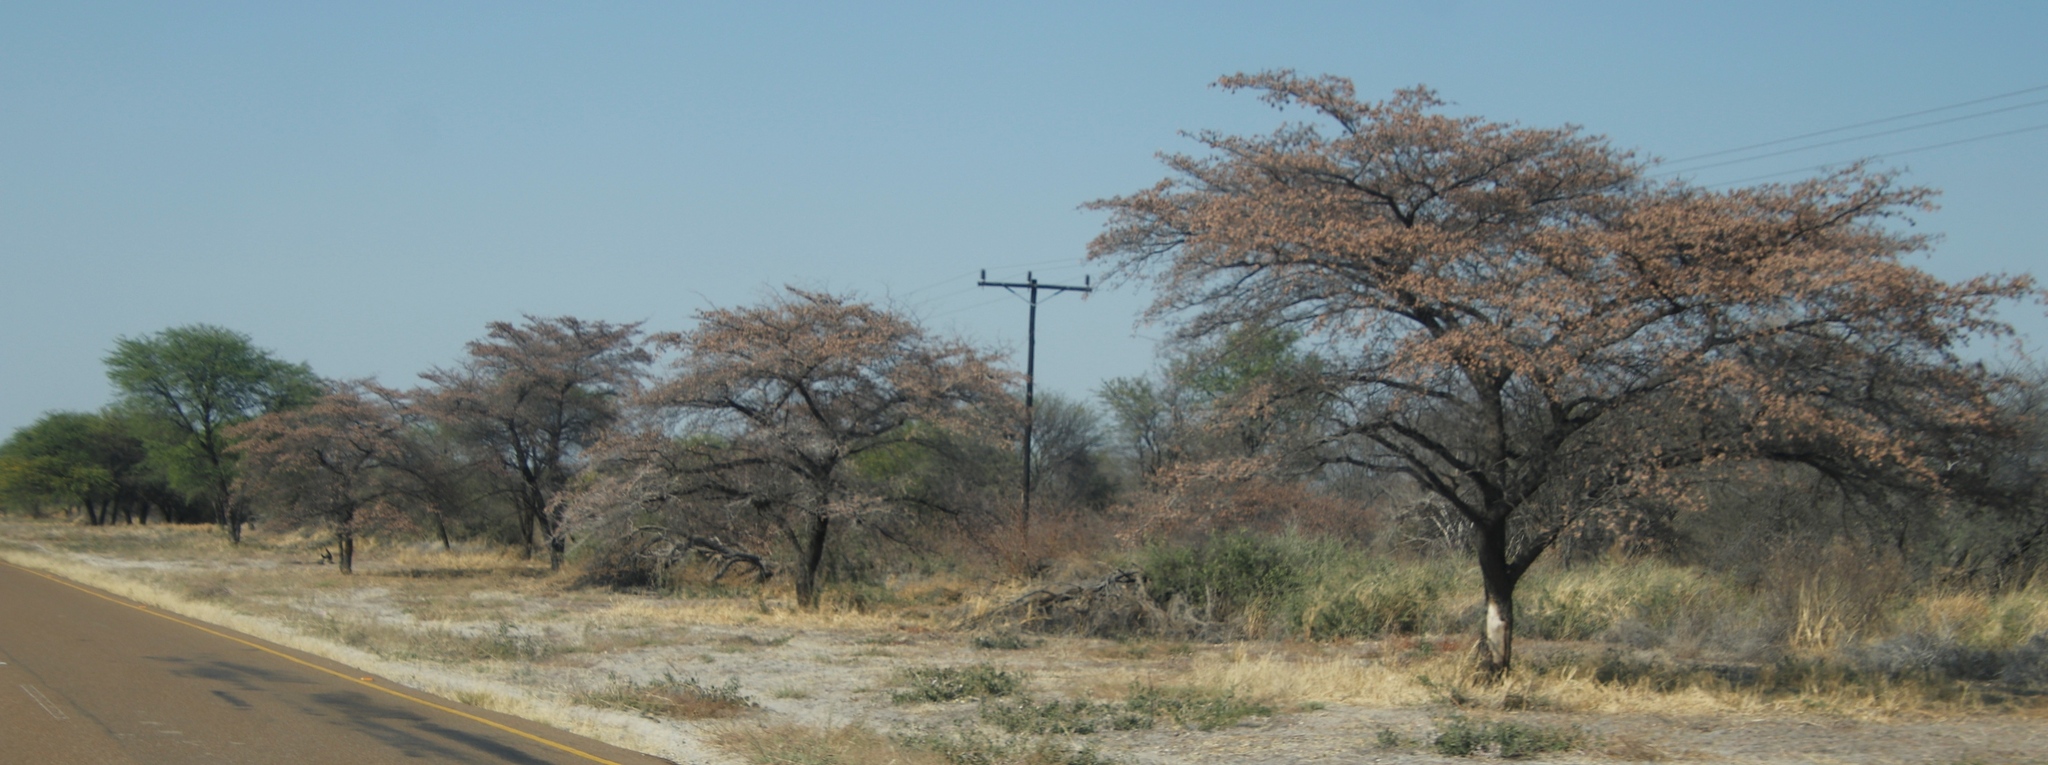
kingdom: Plantae
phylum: Tracheophyta
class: Magnoliopsida
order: Myrtales
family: Combretaceae
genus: Terminalia
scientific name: Terminalia sericea
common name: Clusterleaf
